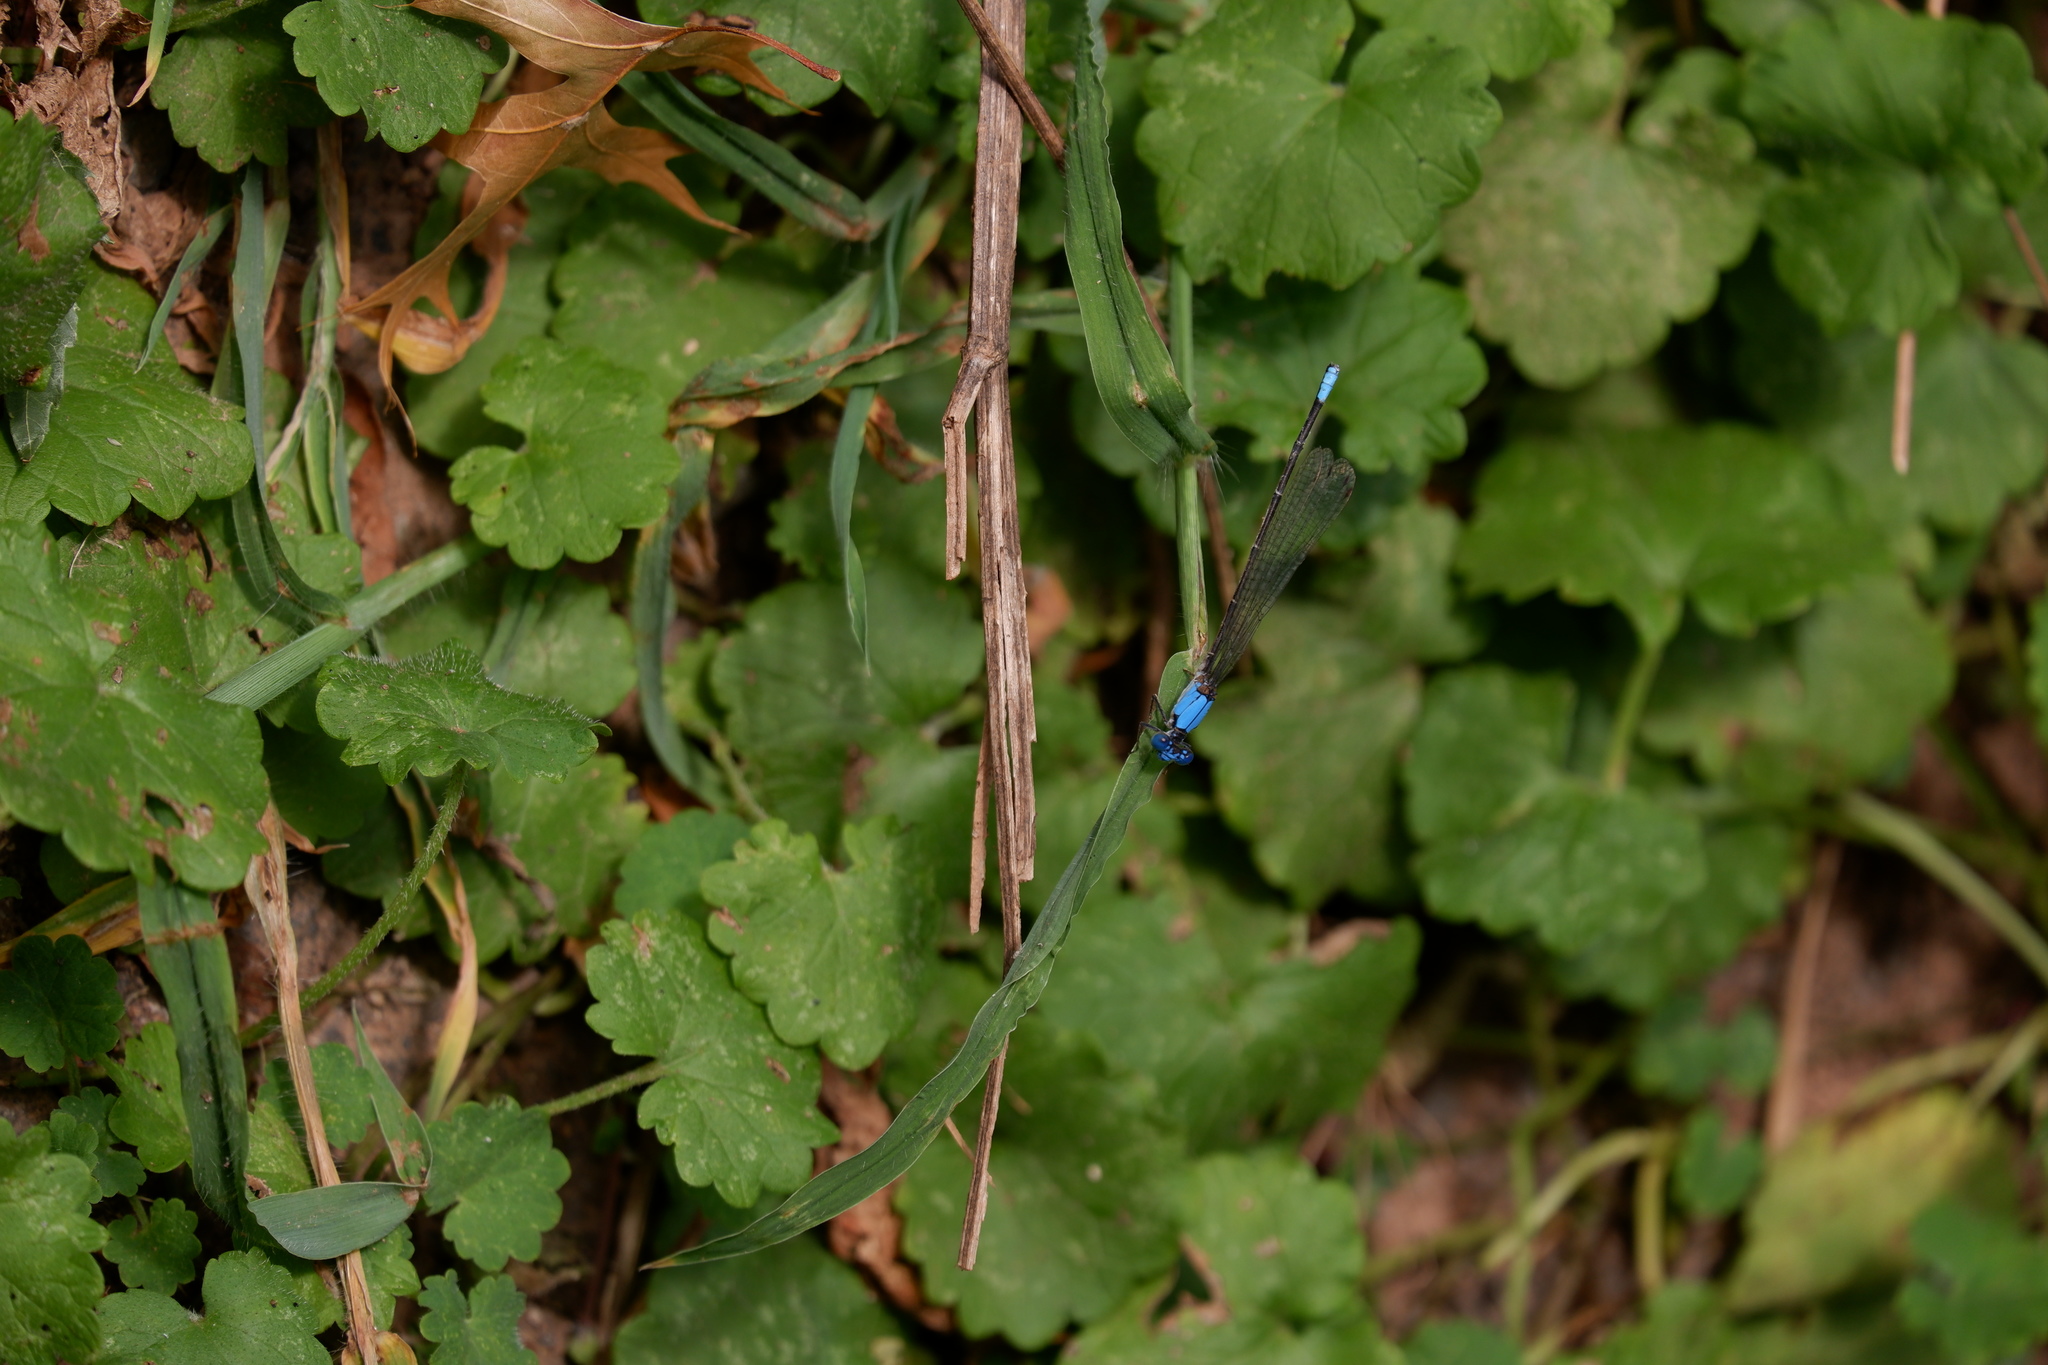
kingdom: Animalia
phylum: Arthropoda
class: Insecta
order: Odonata
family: Coenagrionidae
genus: Argia
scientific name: Argia apicalis
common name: Blue-fronted dancer
